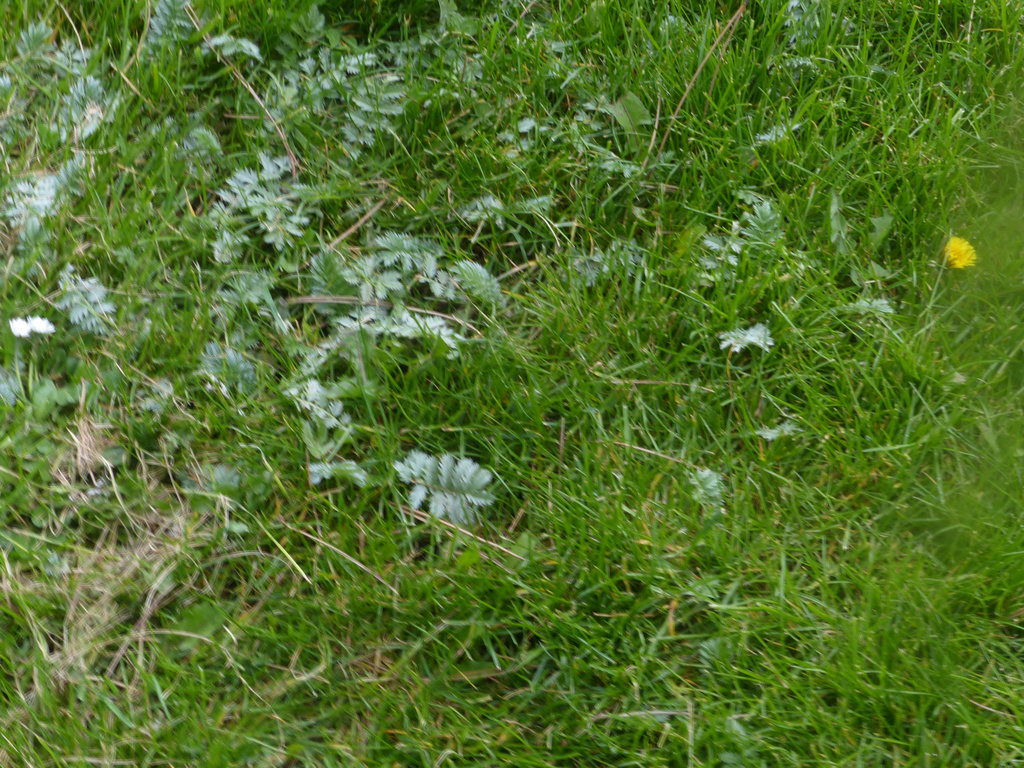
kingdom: Plantae
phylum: Tracheophyta
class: Magnoliopsida
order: Rosales
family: Rosaceae
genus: Argentina
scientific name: Argentina anserina
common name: Common silverweed
